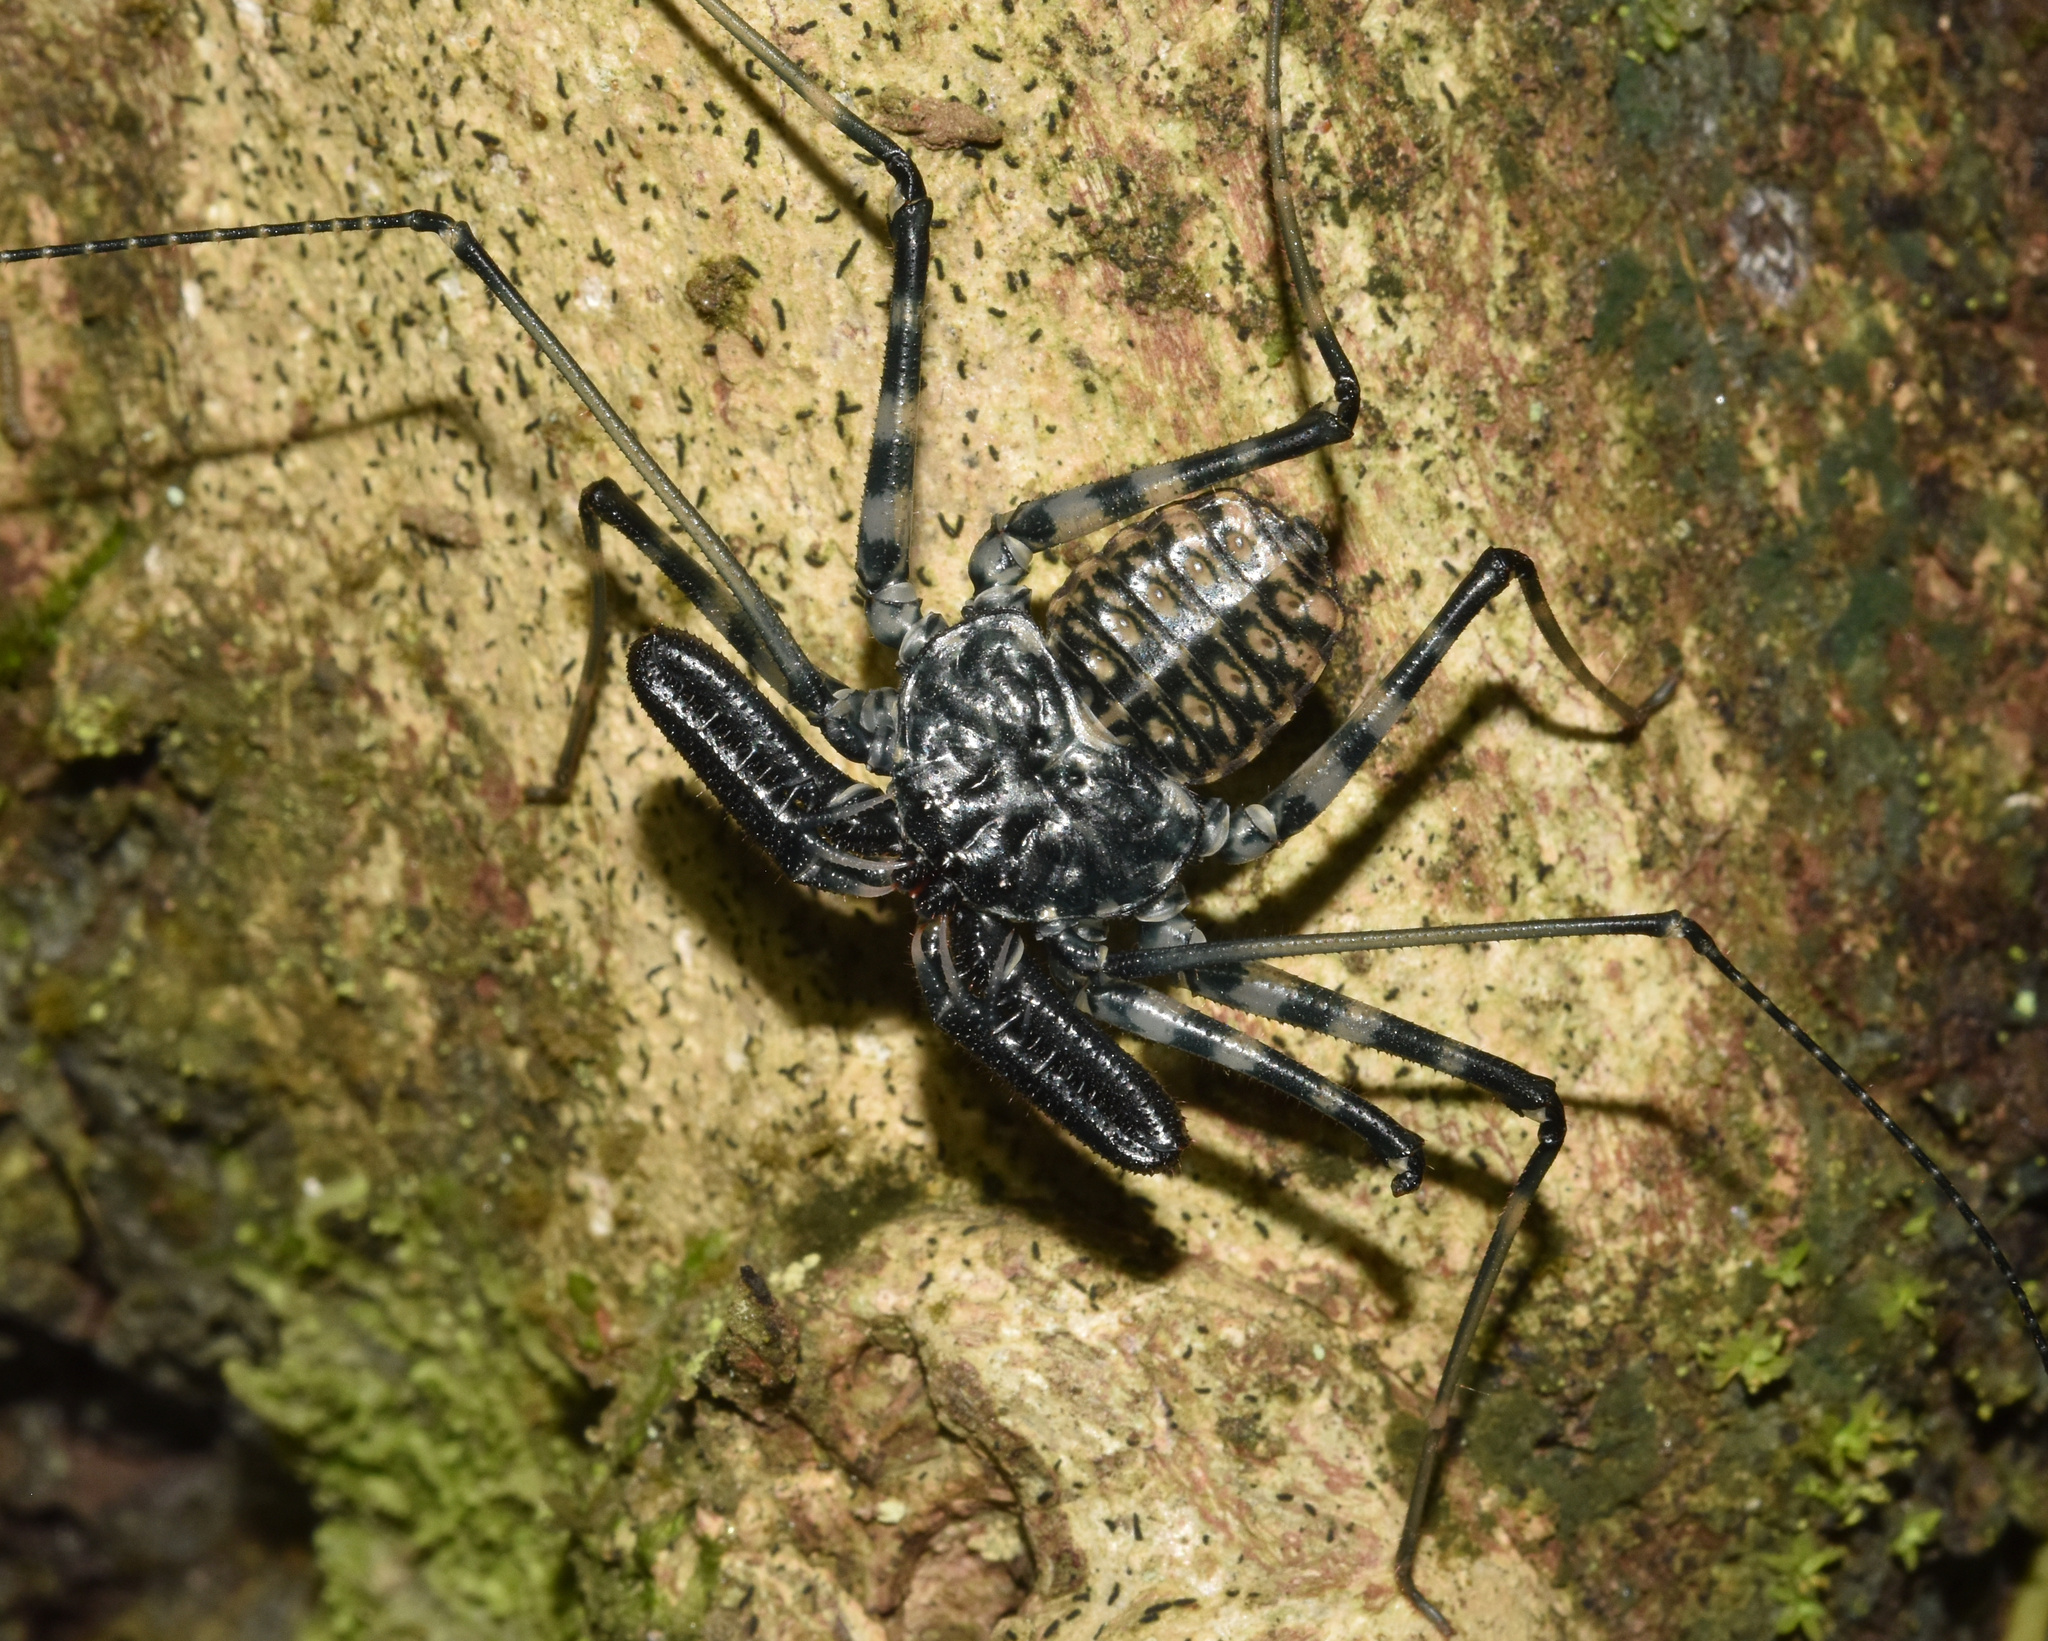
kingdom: Animalia
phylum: Arthropoda
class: Arachnida
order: Amblypygi
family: Phrynichidae
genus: Damon
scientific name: Damon annulatipes
